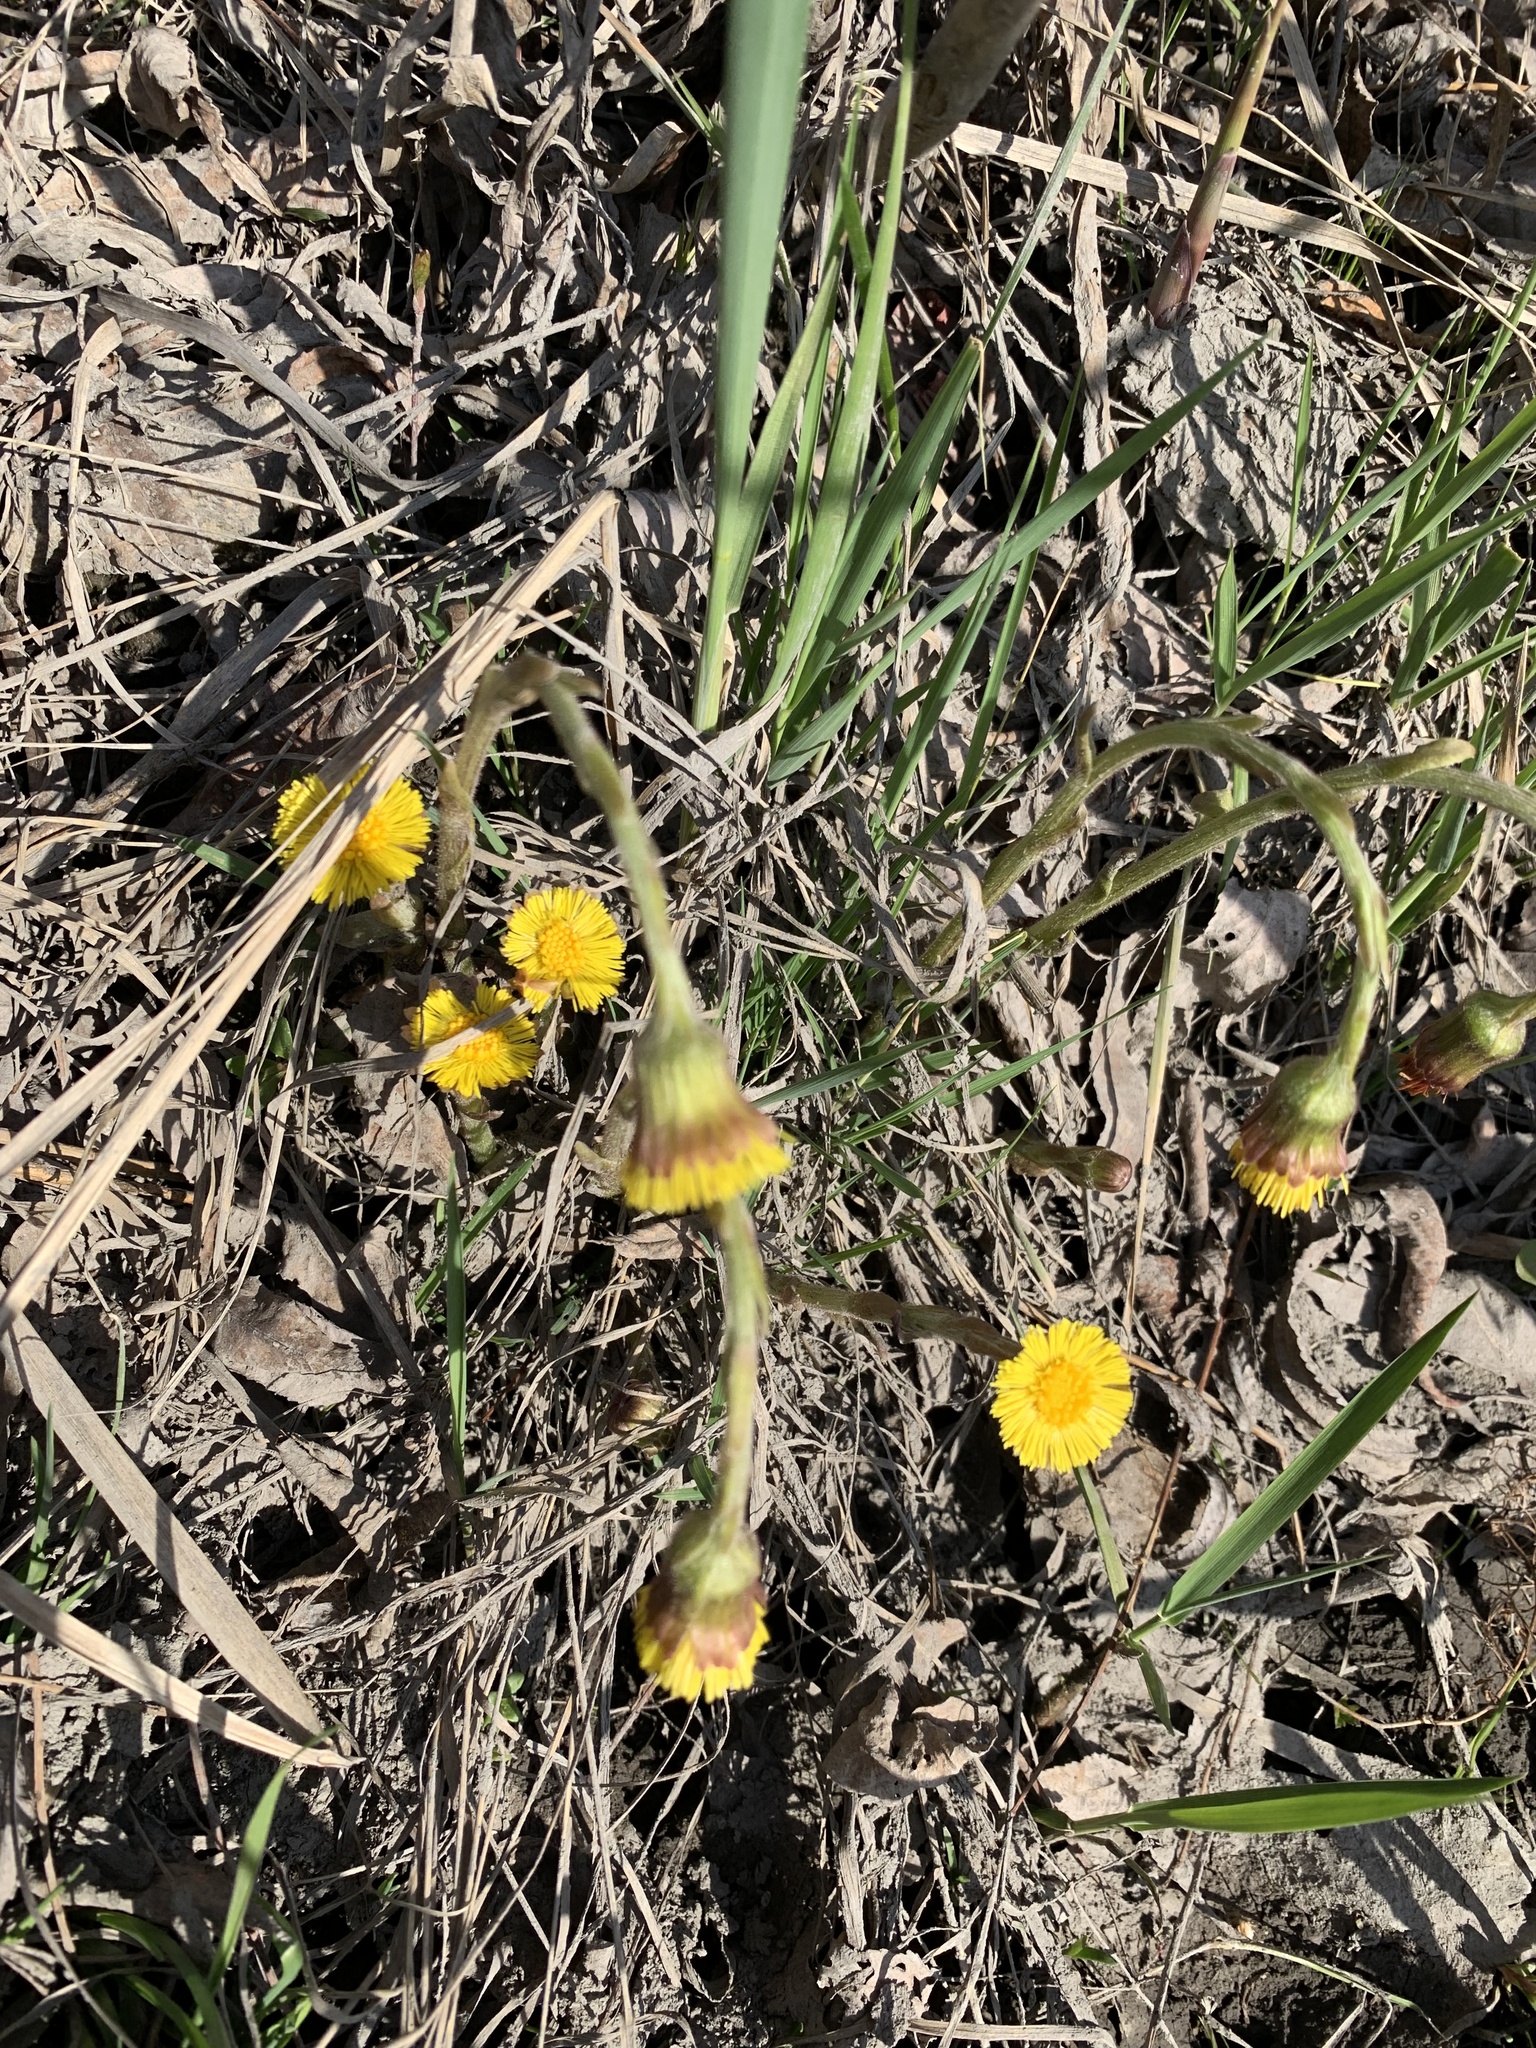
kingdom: Plantae
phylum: Tracheophyta
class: Magnoliopsida
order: Asterales
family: Asteraceae
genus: Tussilago
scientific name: Tussilago farfara
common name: Coltsfoot
